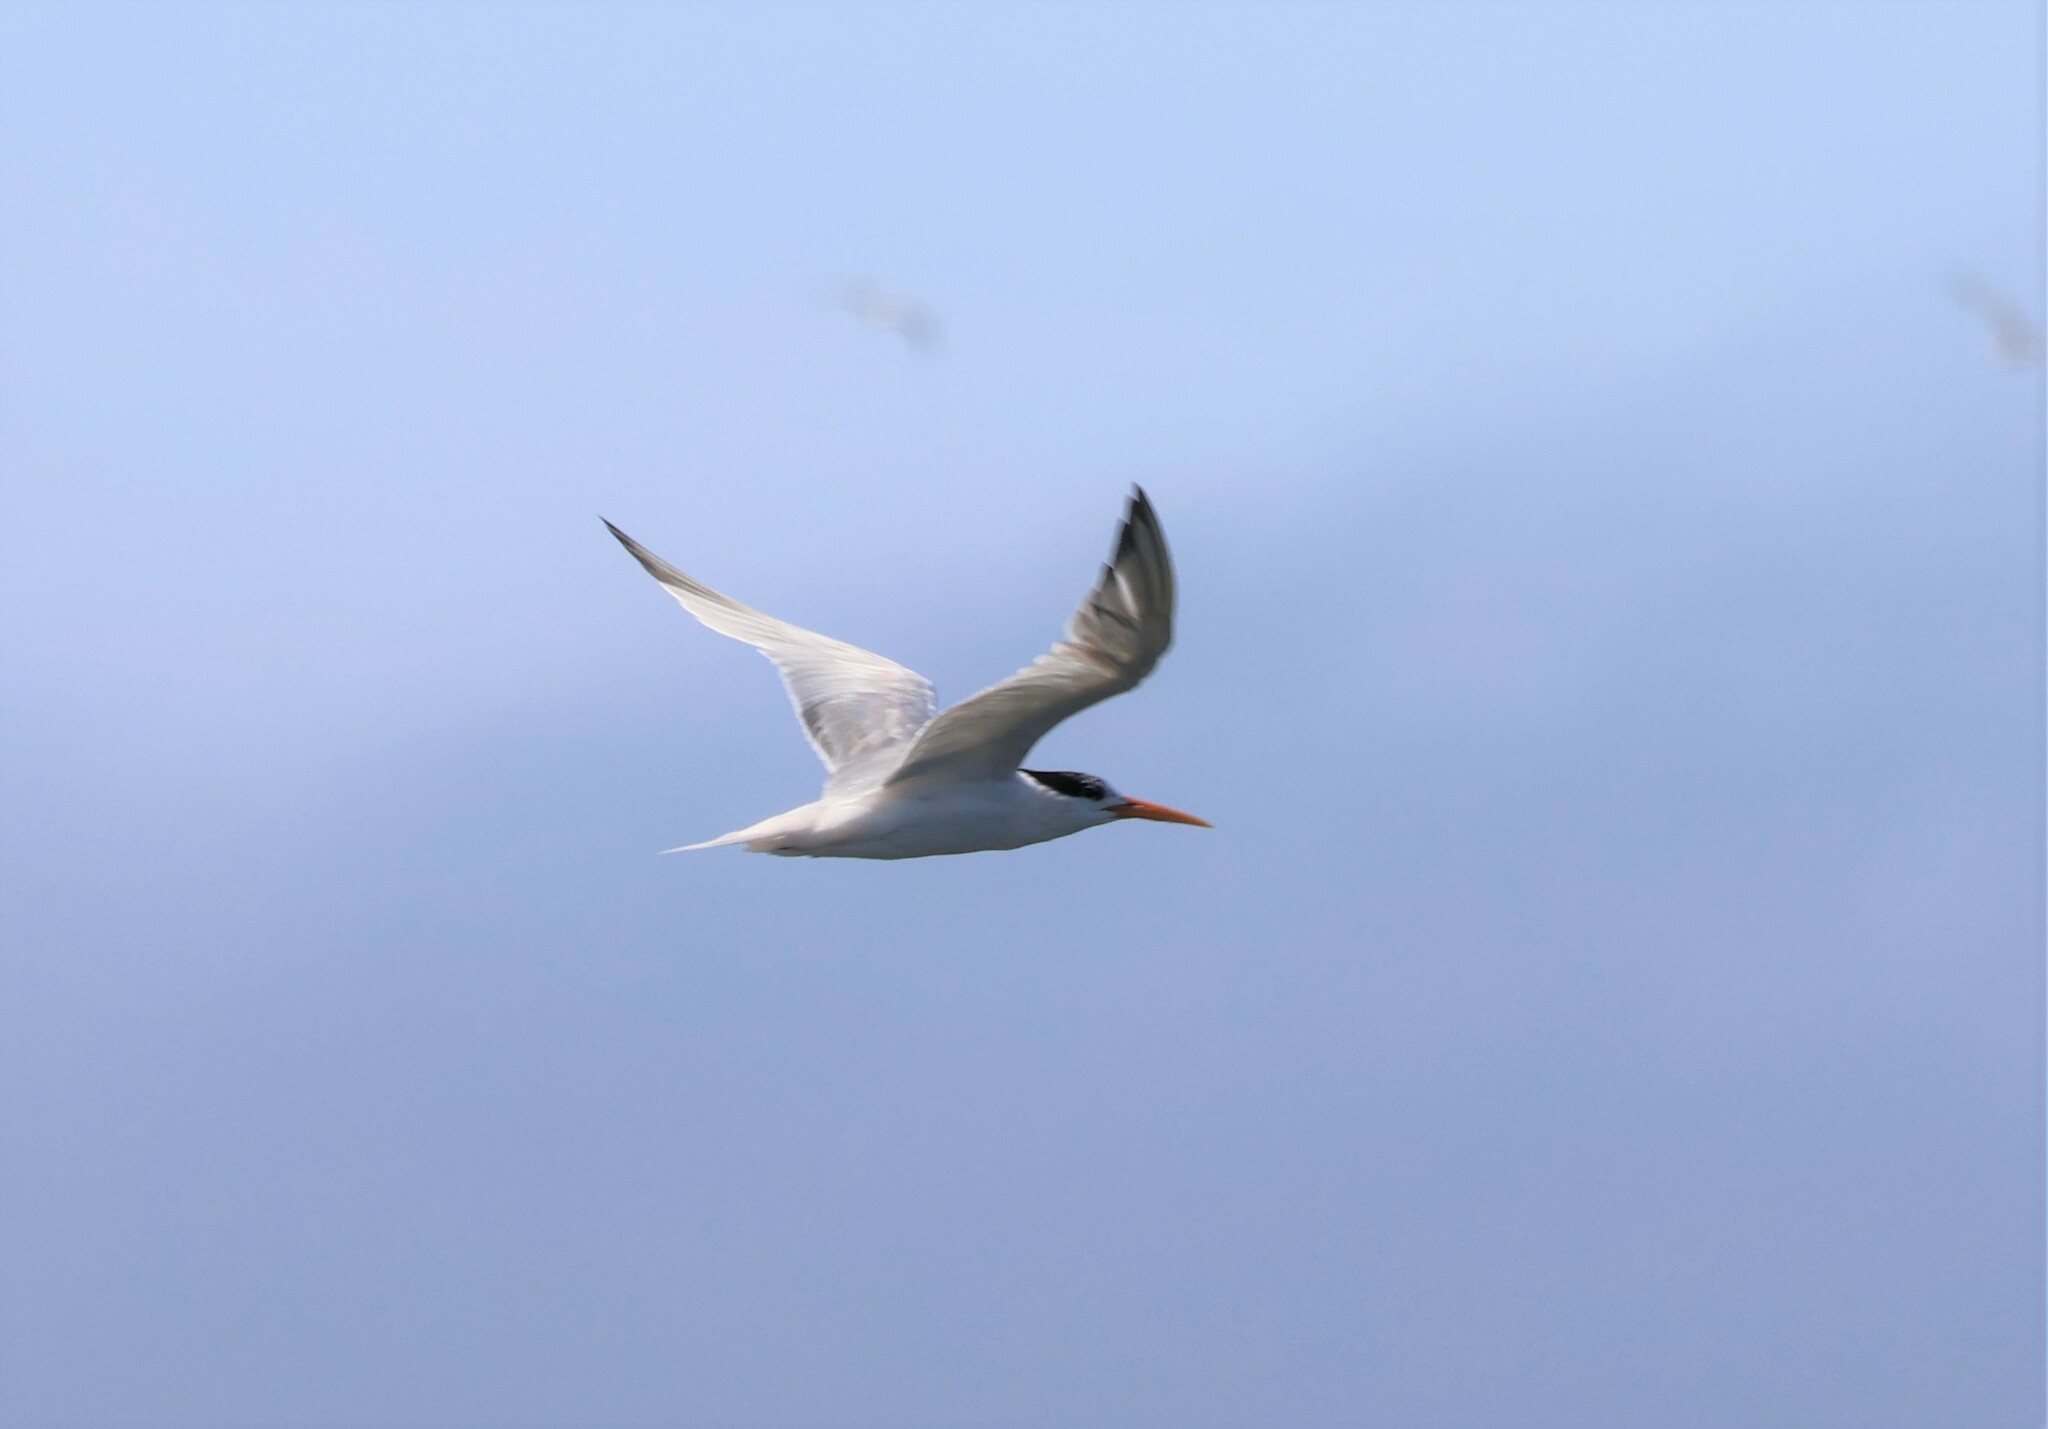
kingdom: Animalia
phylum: Chordata
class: Aves
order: Charadriiformes
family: Laridae
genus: Thalasseus
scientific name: Thalasseus elegans
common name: Elegant tern
